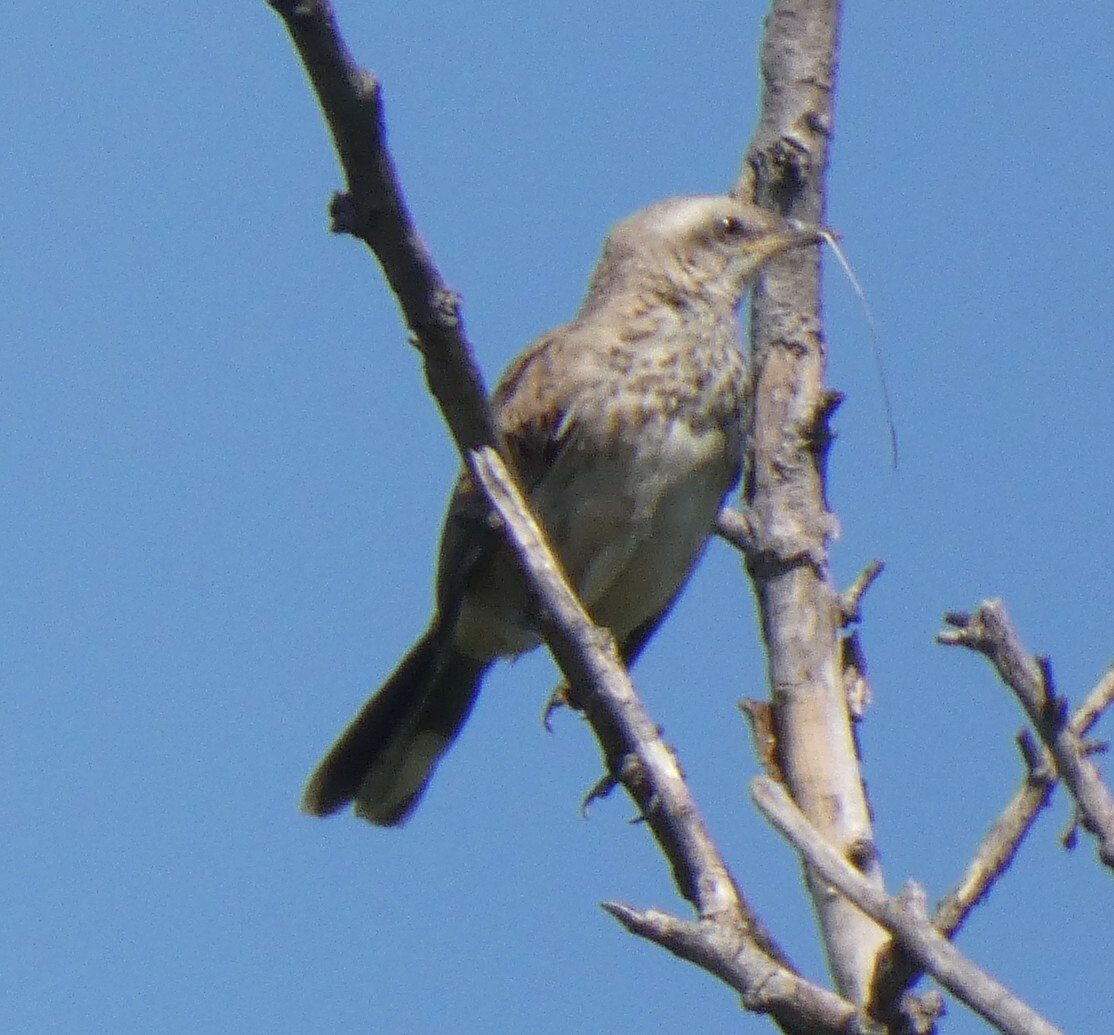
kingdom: Animalia
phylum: Chordata
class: Aves
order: Passeriformes
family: Mimidae
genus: Mimus
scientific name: Mimus saturninus
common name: Chalk-browed mockingbird
